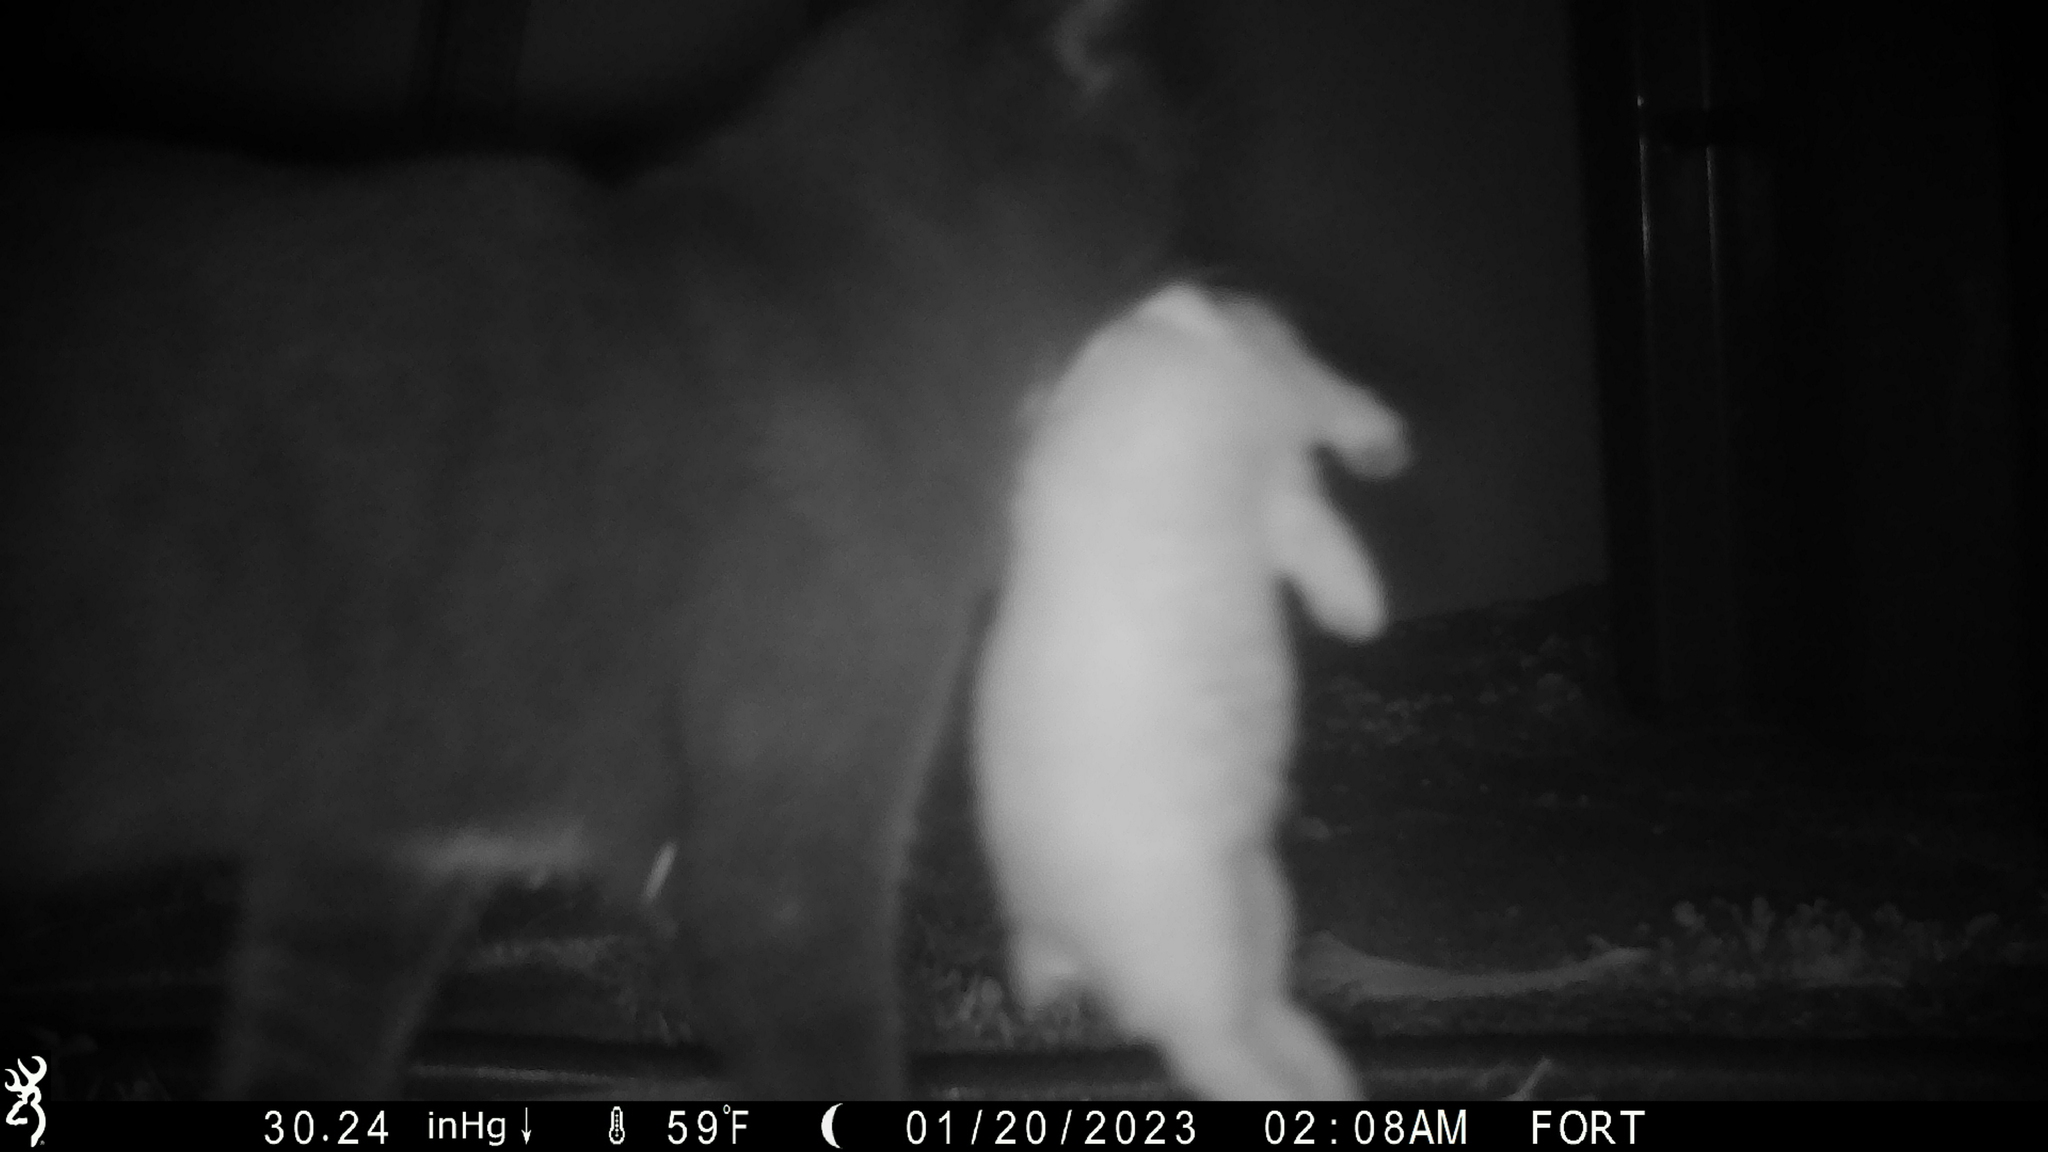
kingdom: Animalia
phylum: Chordata
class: Mammalia
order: Carnivora
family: Felidae
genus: Felis
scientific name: Felis catus
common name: Domestic cat
